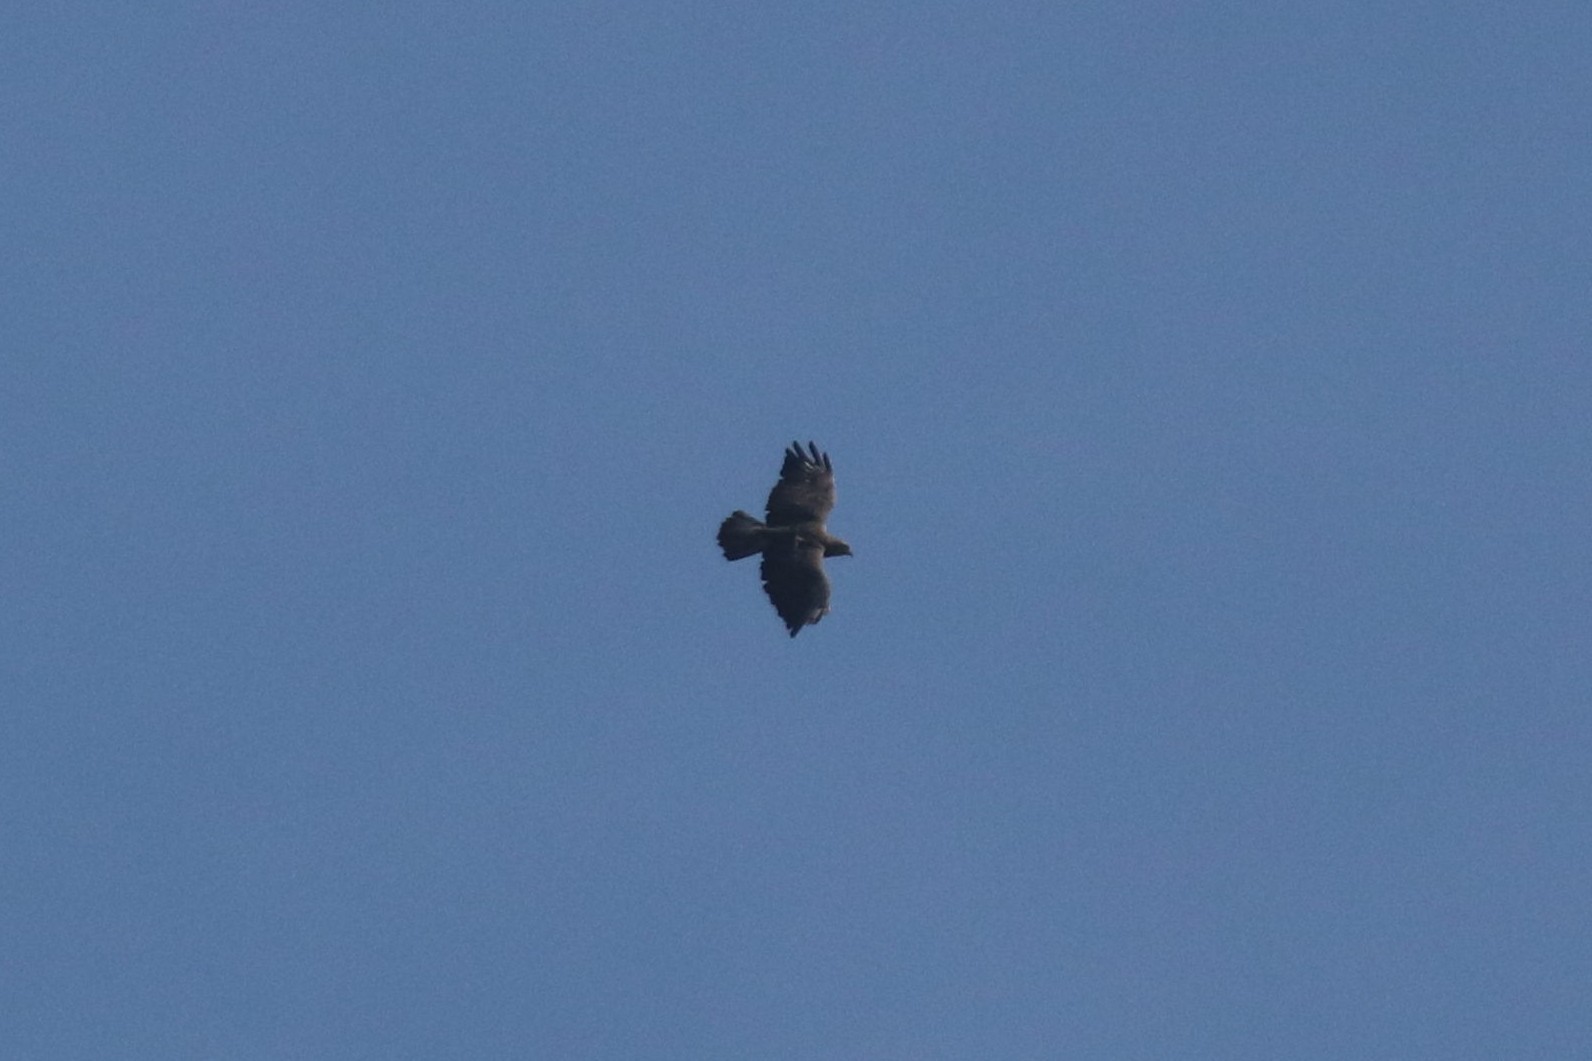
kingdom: Animalia
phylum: Chordata
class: Aves
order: Accipitriformes
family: Accipitridae
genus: Buteo
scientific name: Buteo buteo
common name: Common buzzard
